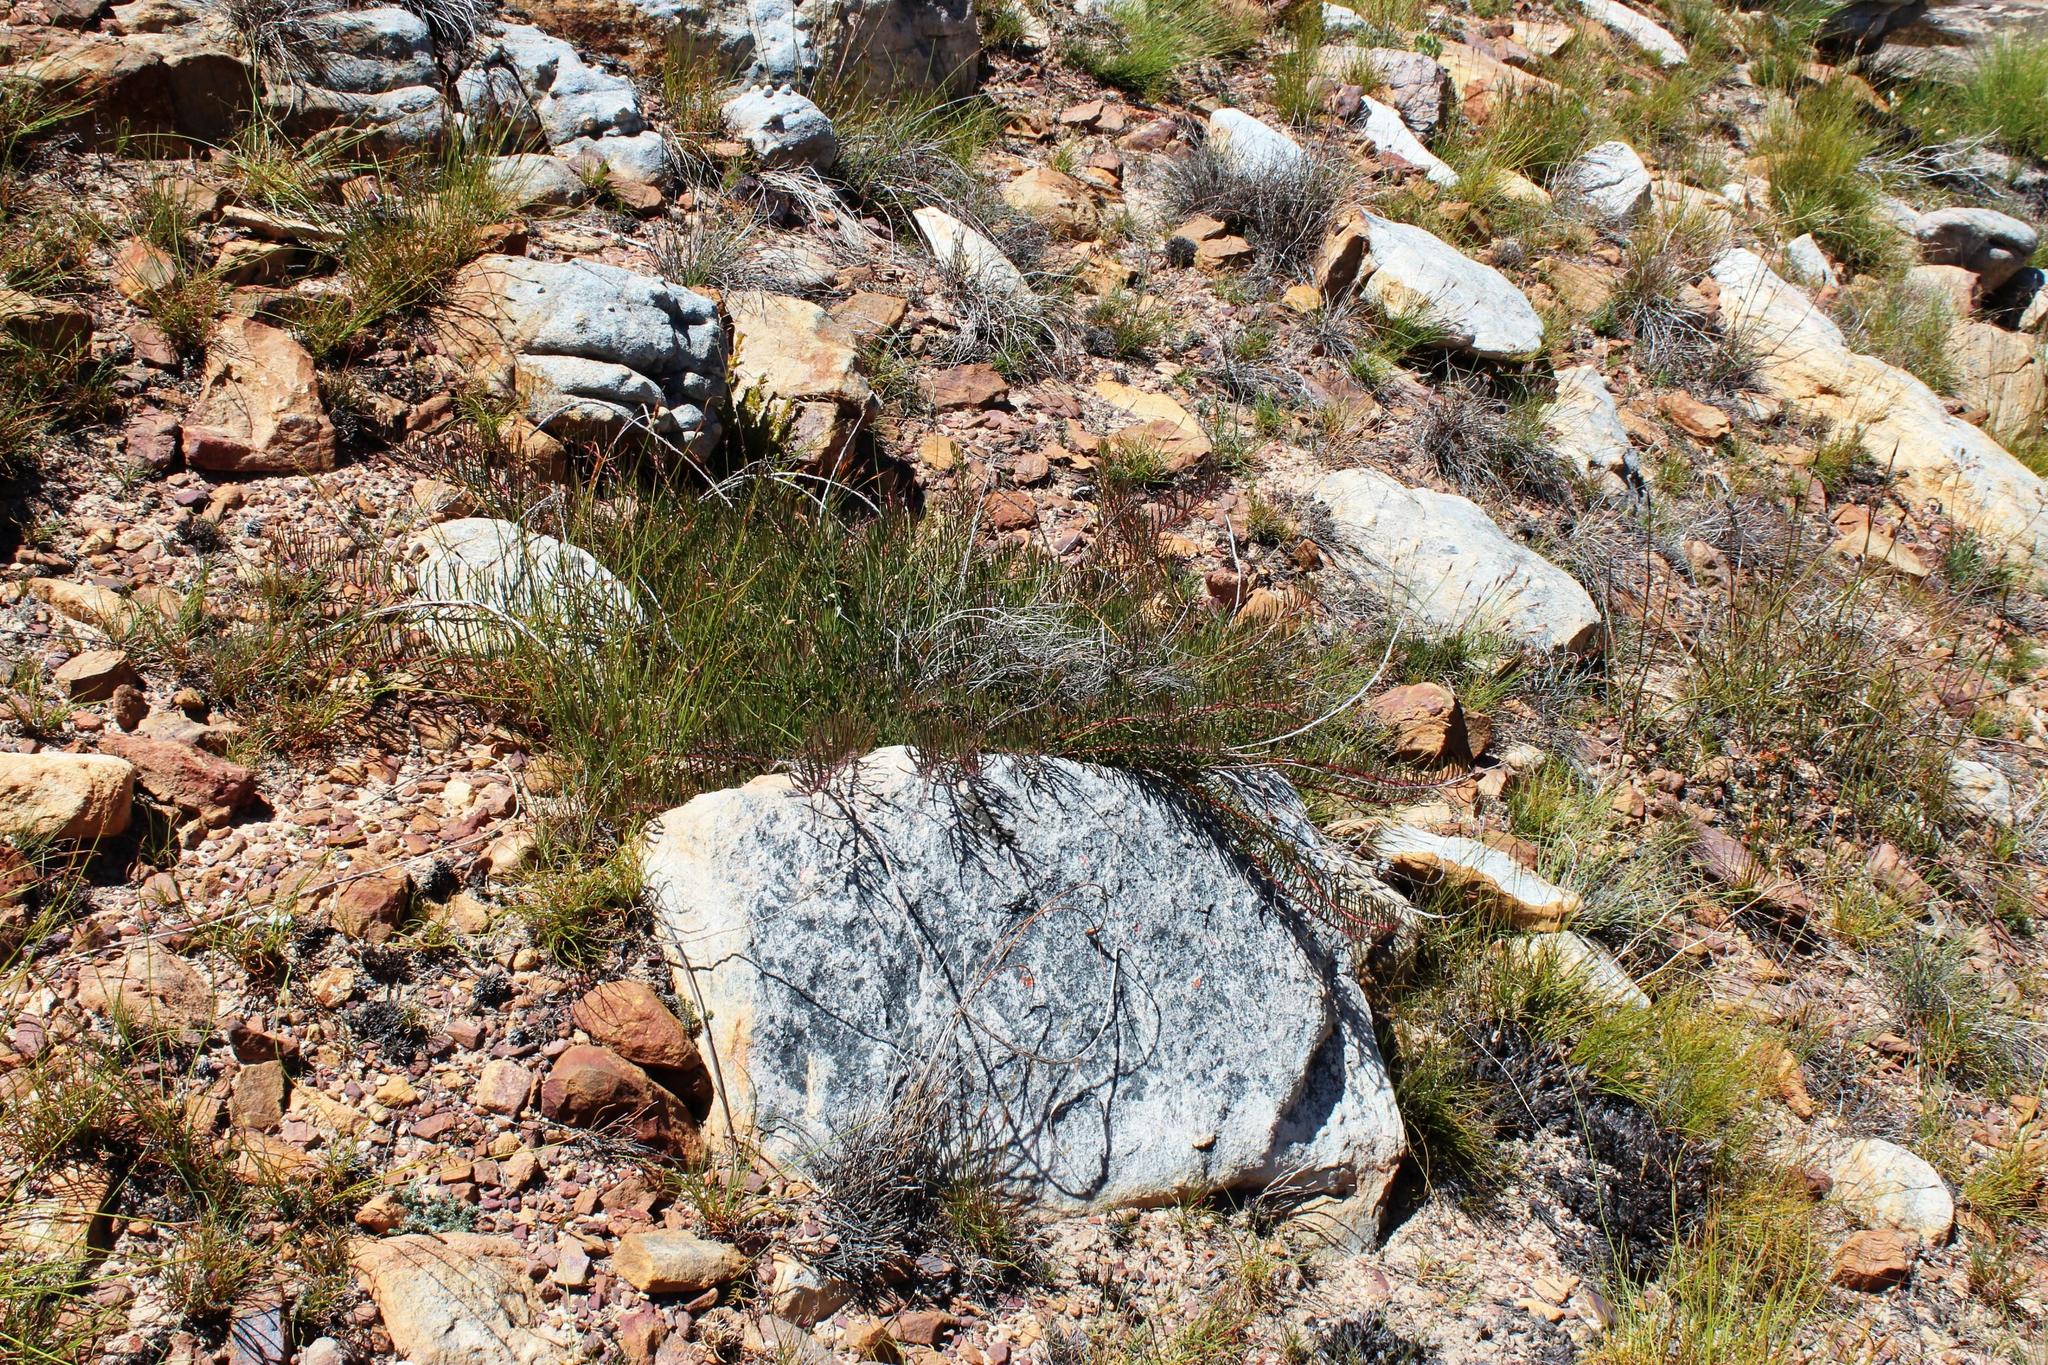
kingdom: Plantae
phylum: Tracheophyta
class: Magnoliopsida
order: Proteales
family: Proteaceae
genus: Protea
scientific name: Protea witzenbergiana
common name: Swan sugarbush
